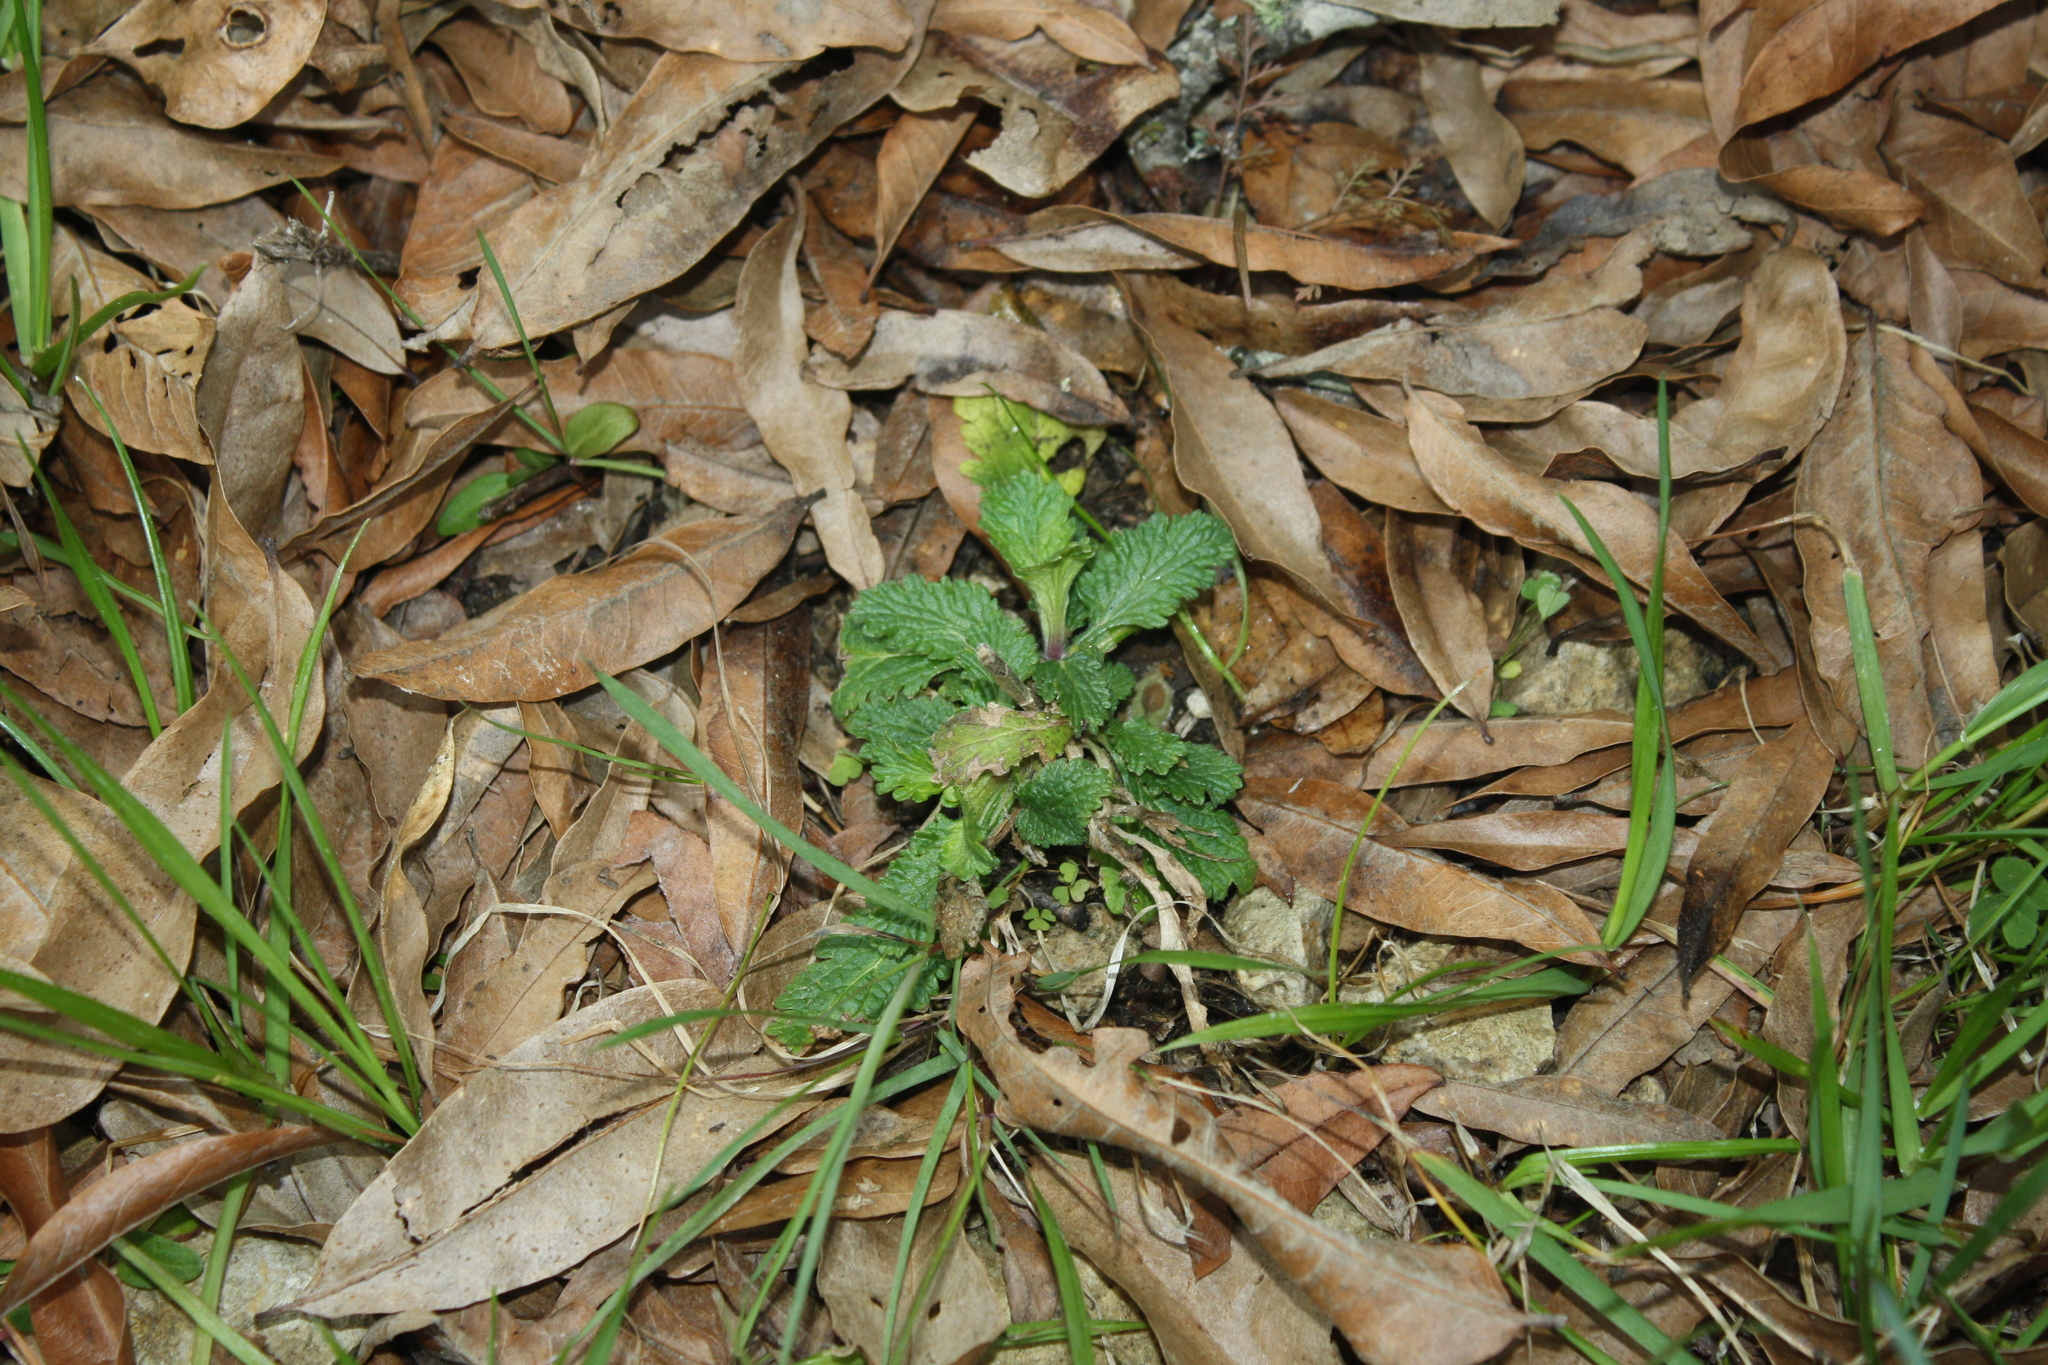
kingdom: Plantae
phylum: Tracheophyta
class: Magnoliopsida
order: Lamiales
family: Verbenaceae
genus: Verbena
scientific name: Verbena halei
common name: Texas vervain
